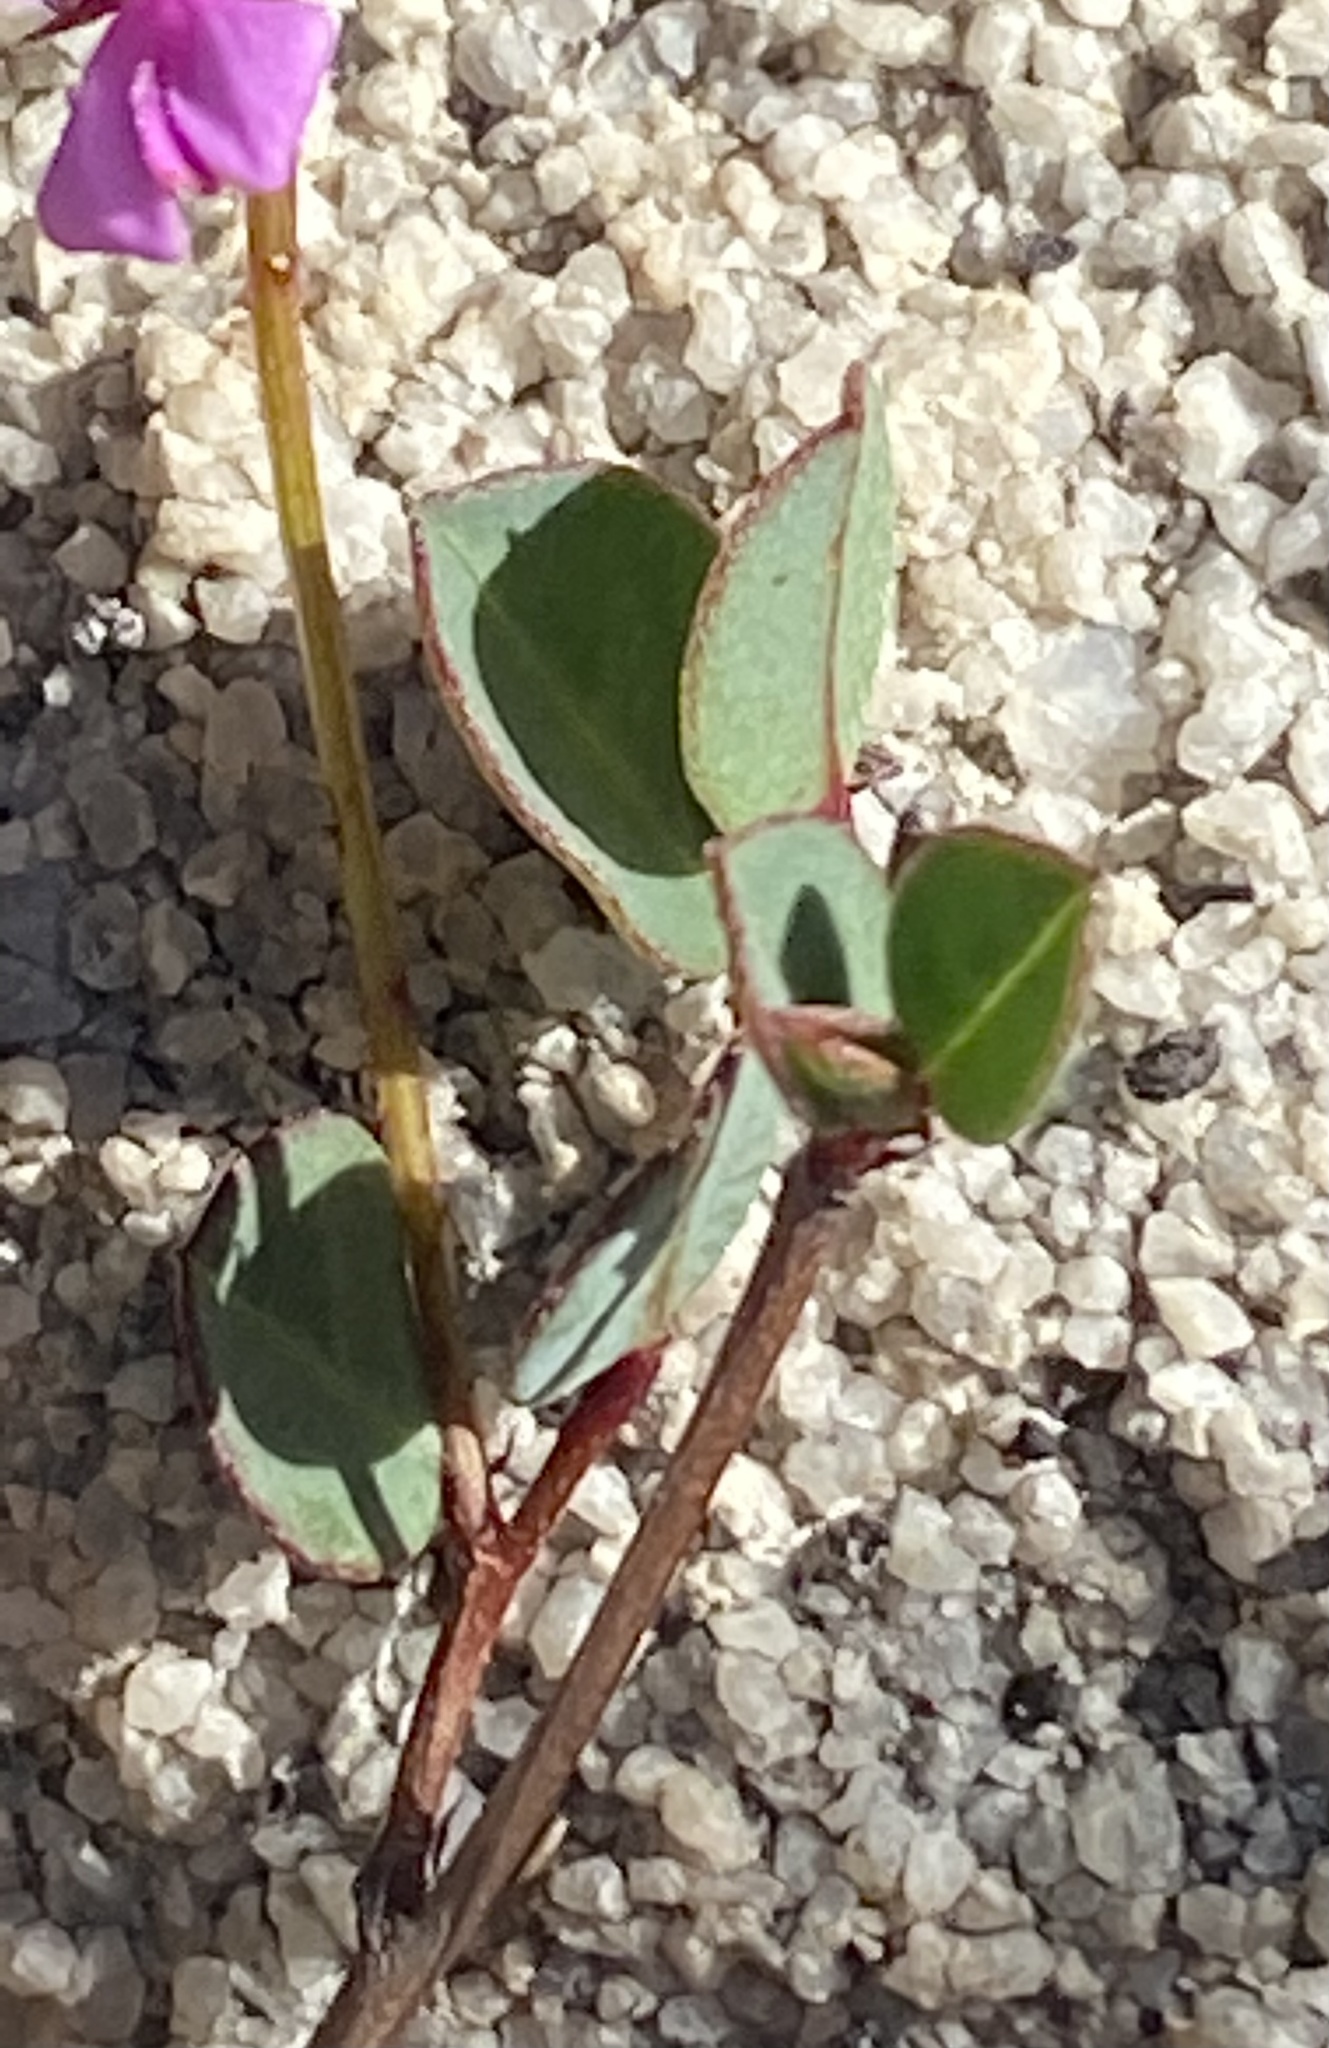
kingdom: Plantae
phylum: Tracheophyta
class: Magnoliopsida
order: Fabales
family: Fabaceae
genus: Indigofera
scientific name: Indigofera ovata
